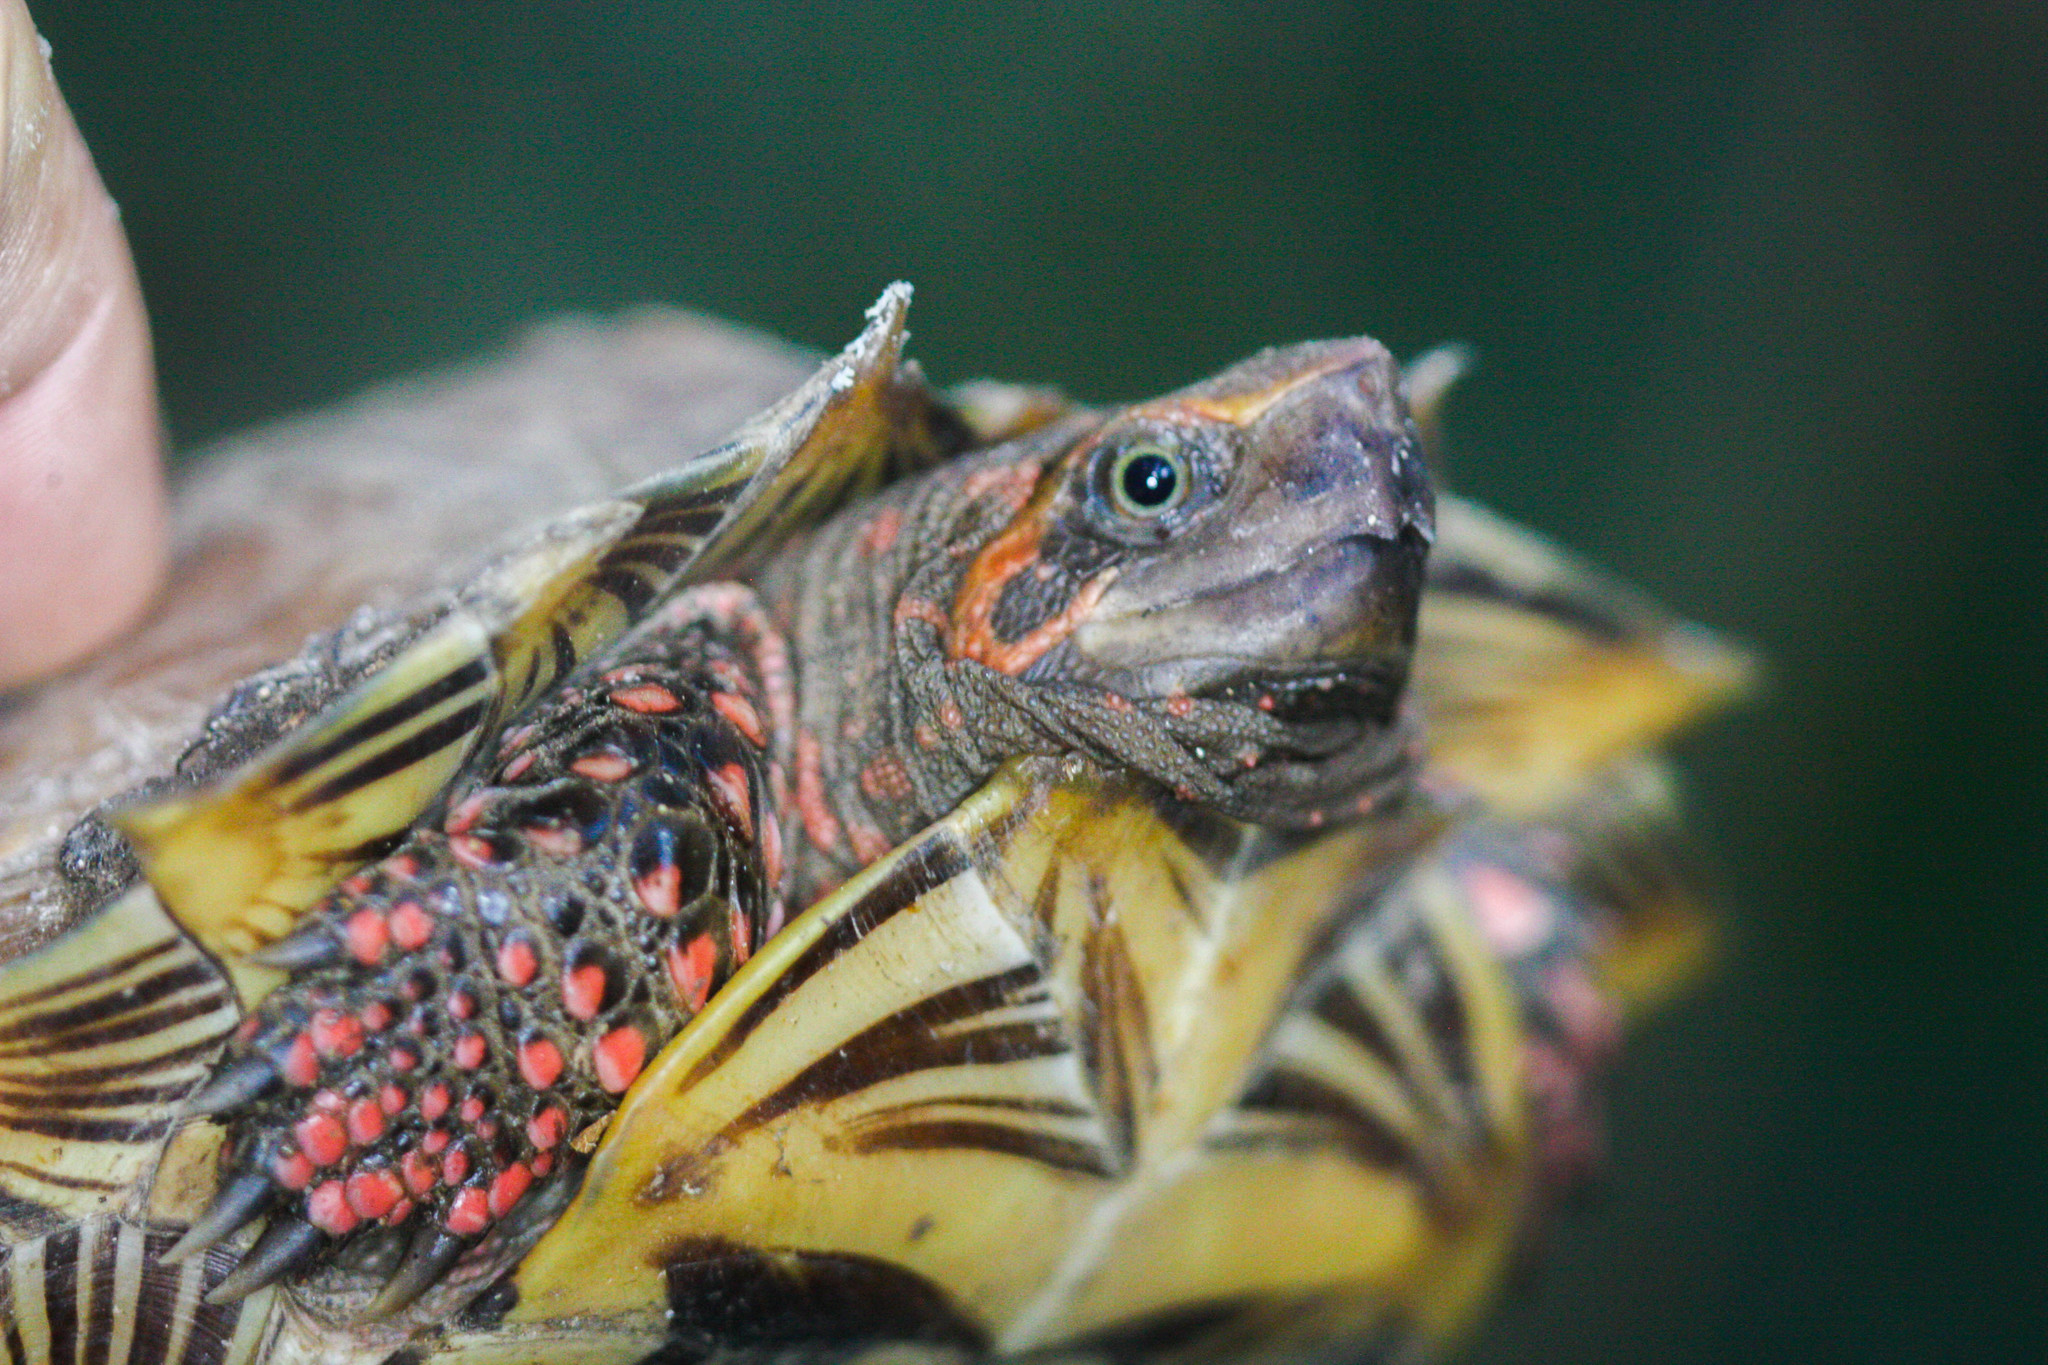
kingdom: Animalia
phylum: Chordata
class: Testudines
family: Geoemydidae
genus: Heosemys
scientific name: Heosemys spinosa
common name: Spiny turtle
